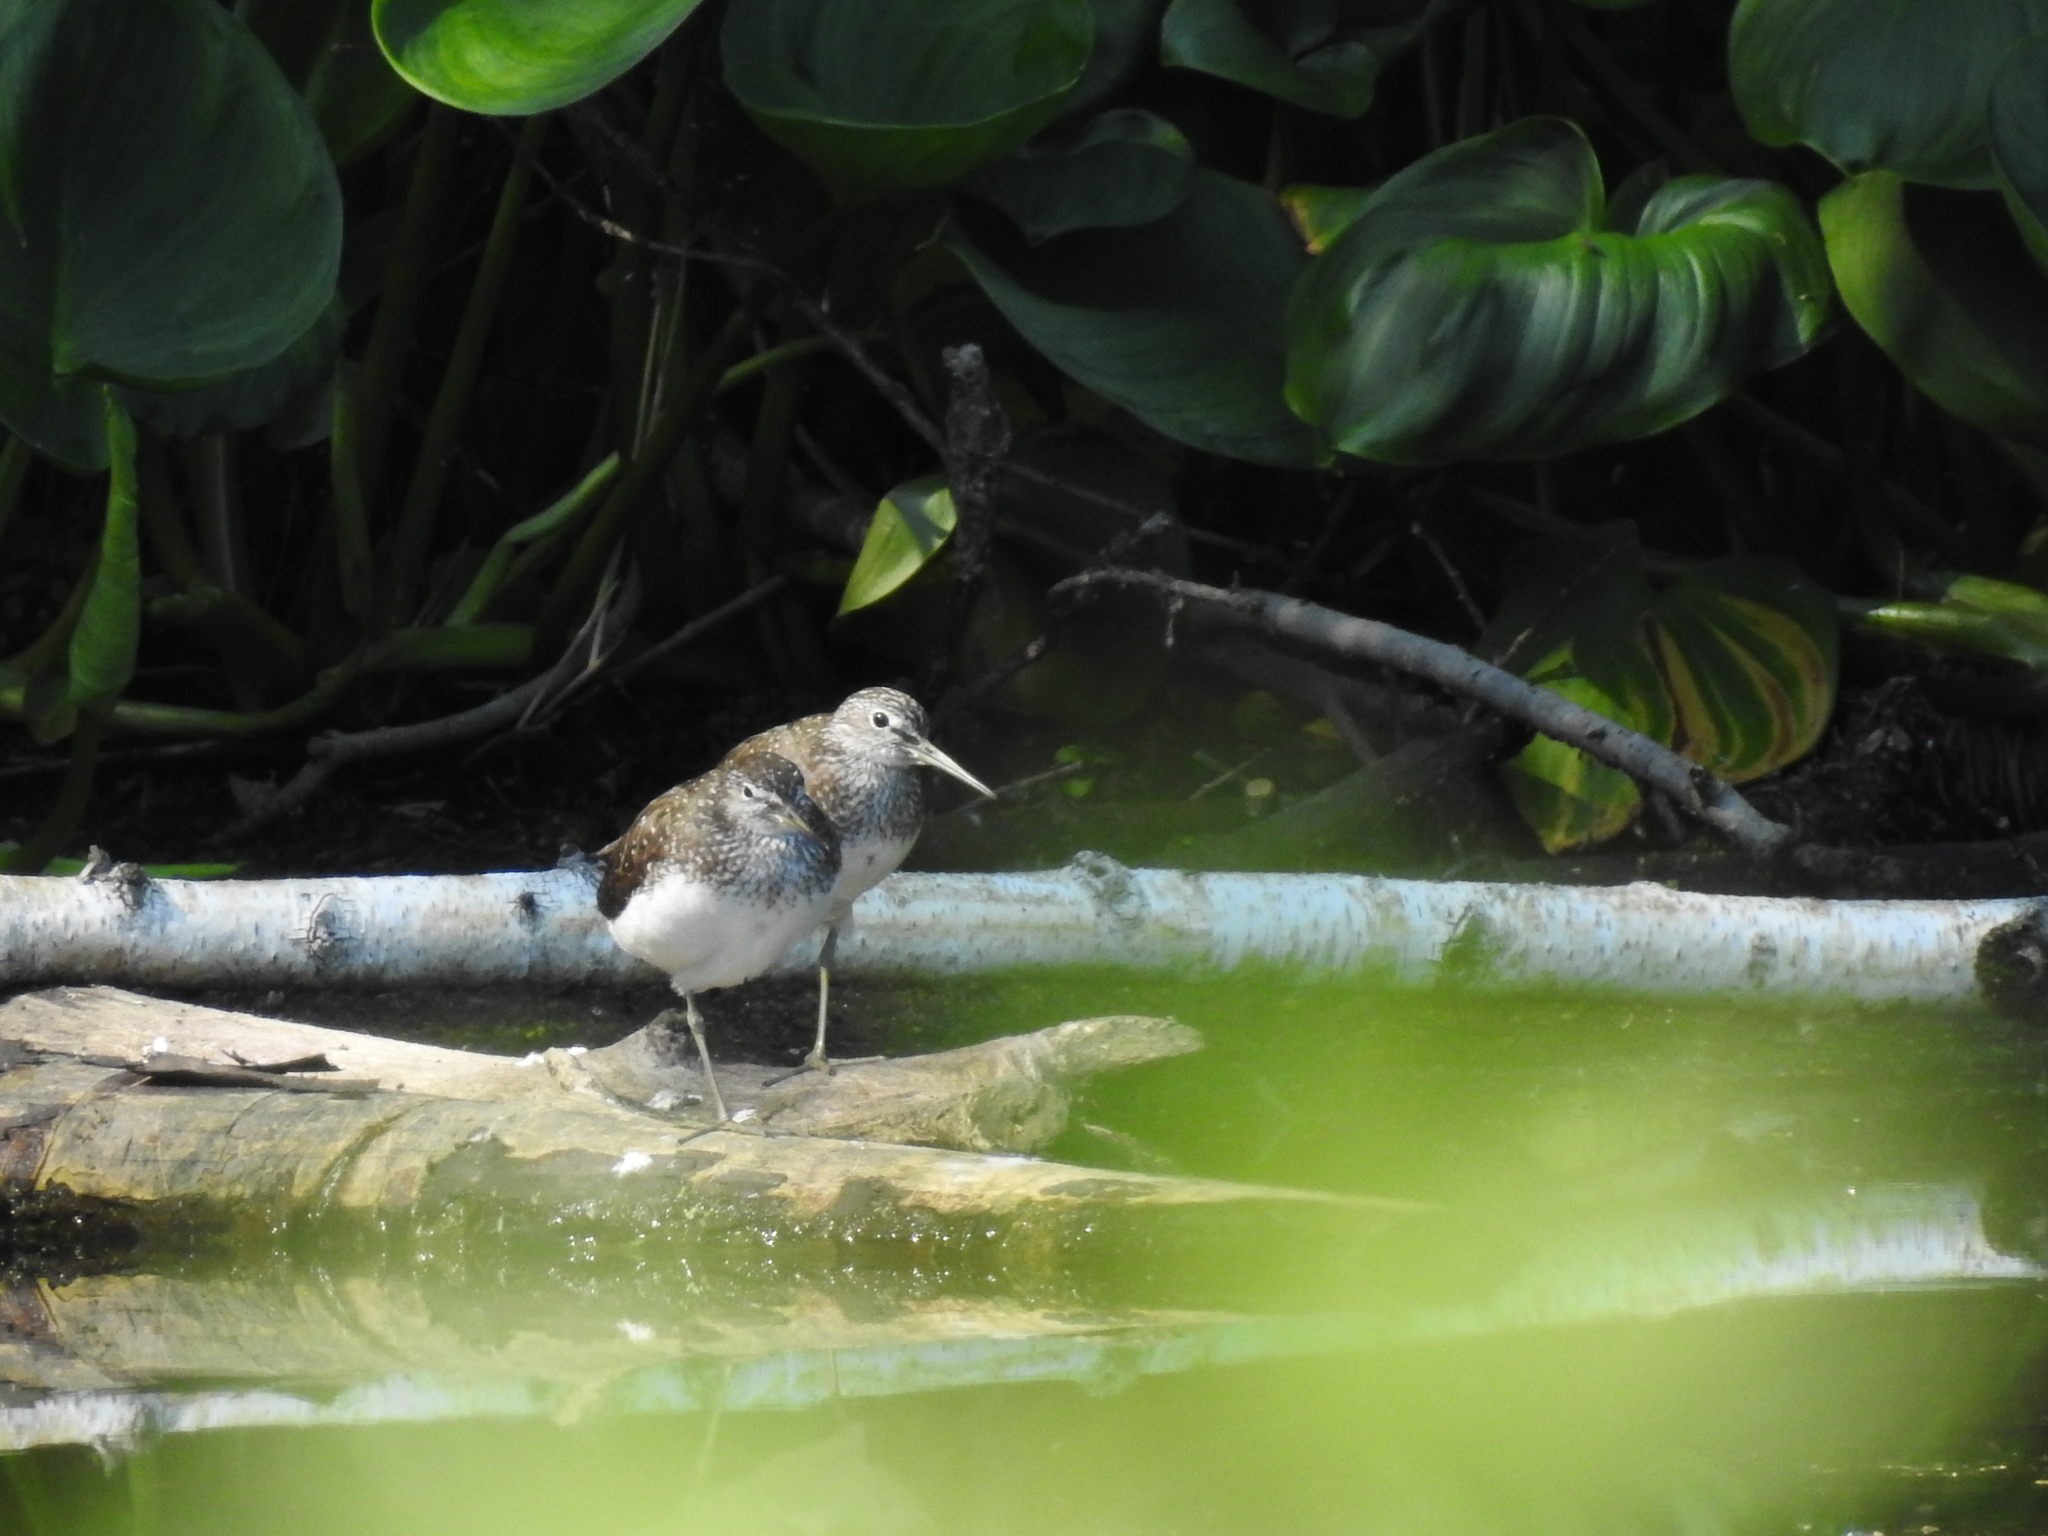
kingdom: Animalia
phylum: Chordata
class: Aves
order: Charadriiformes
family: Scolopacidae
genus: Tringa
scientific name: Tringa ochropus
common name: Green sandpiper
